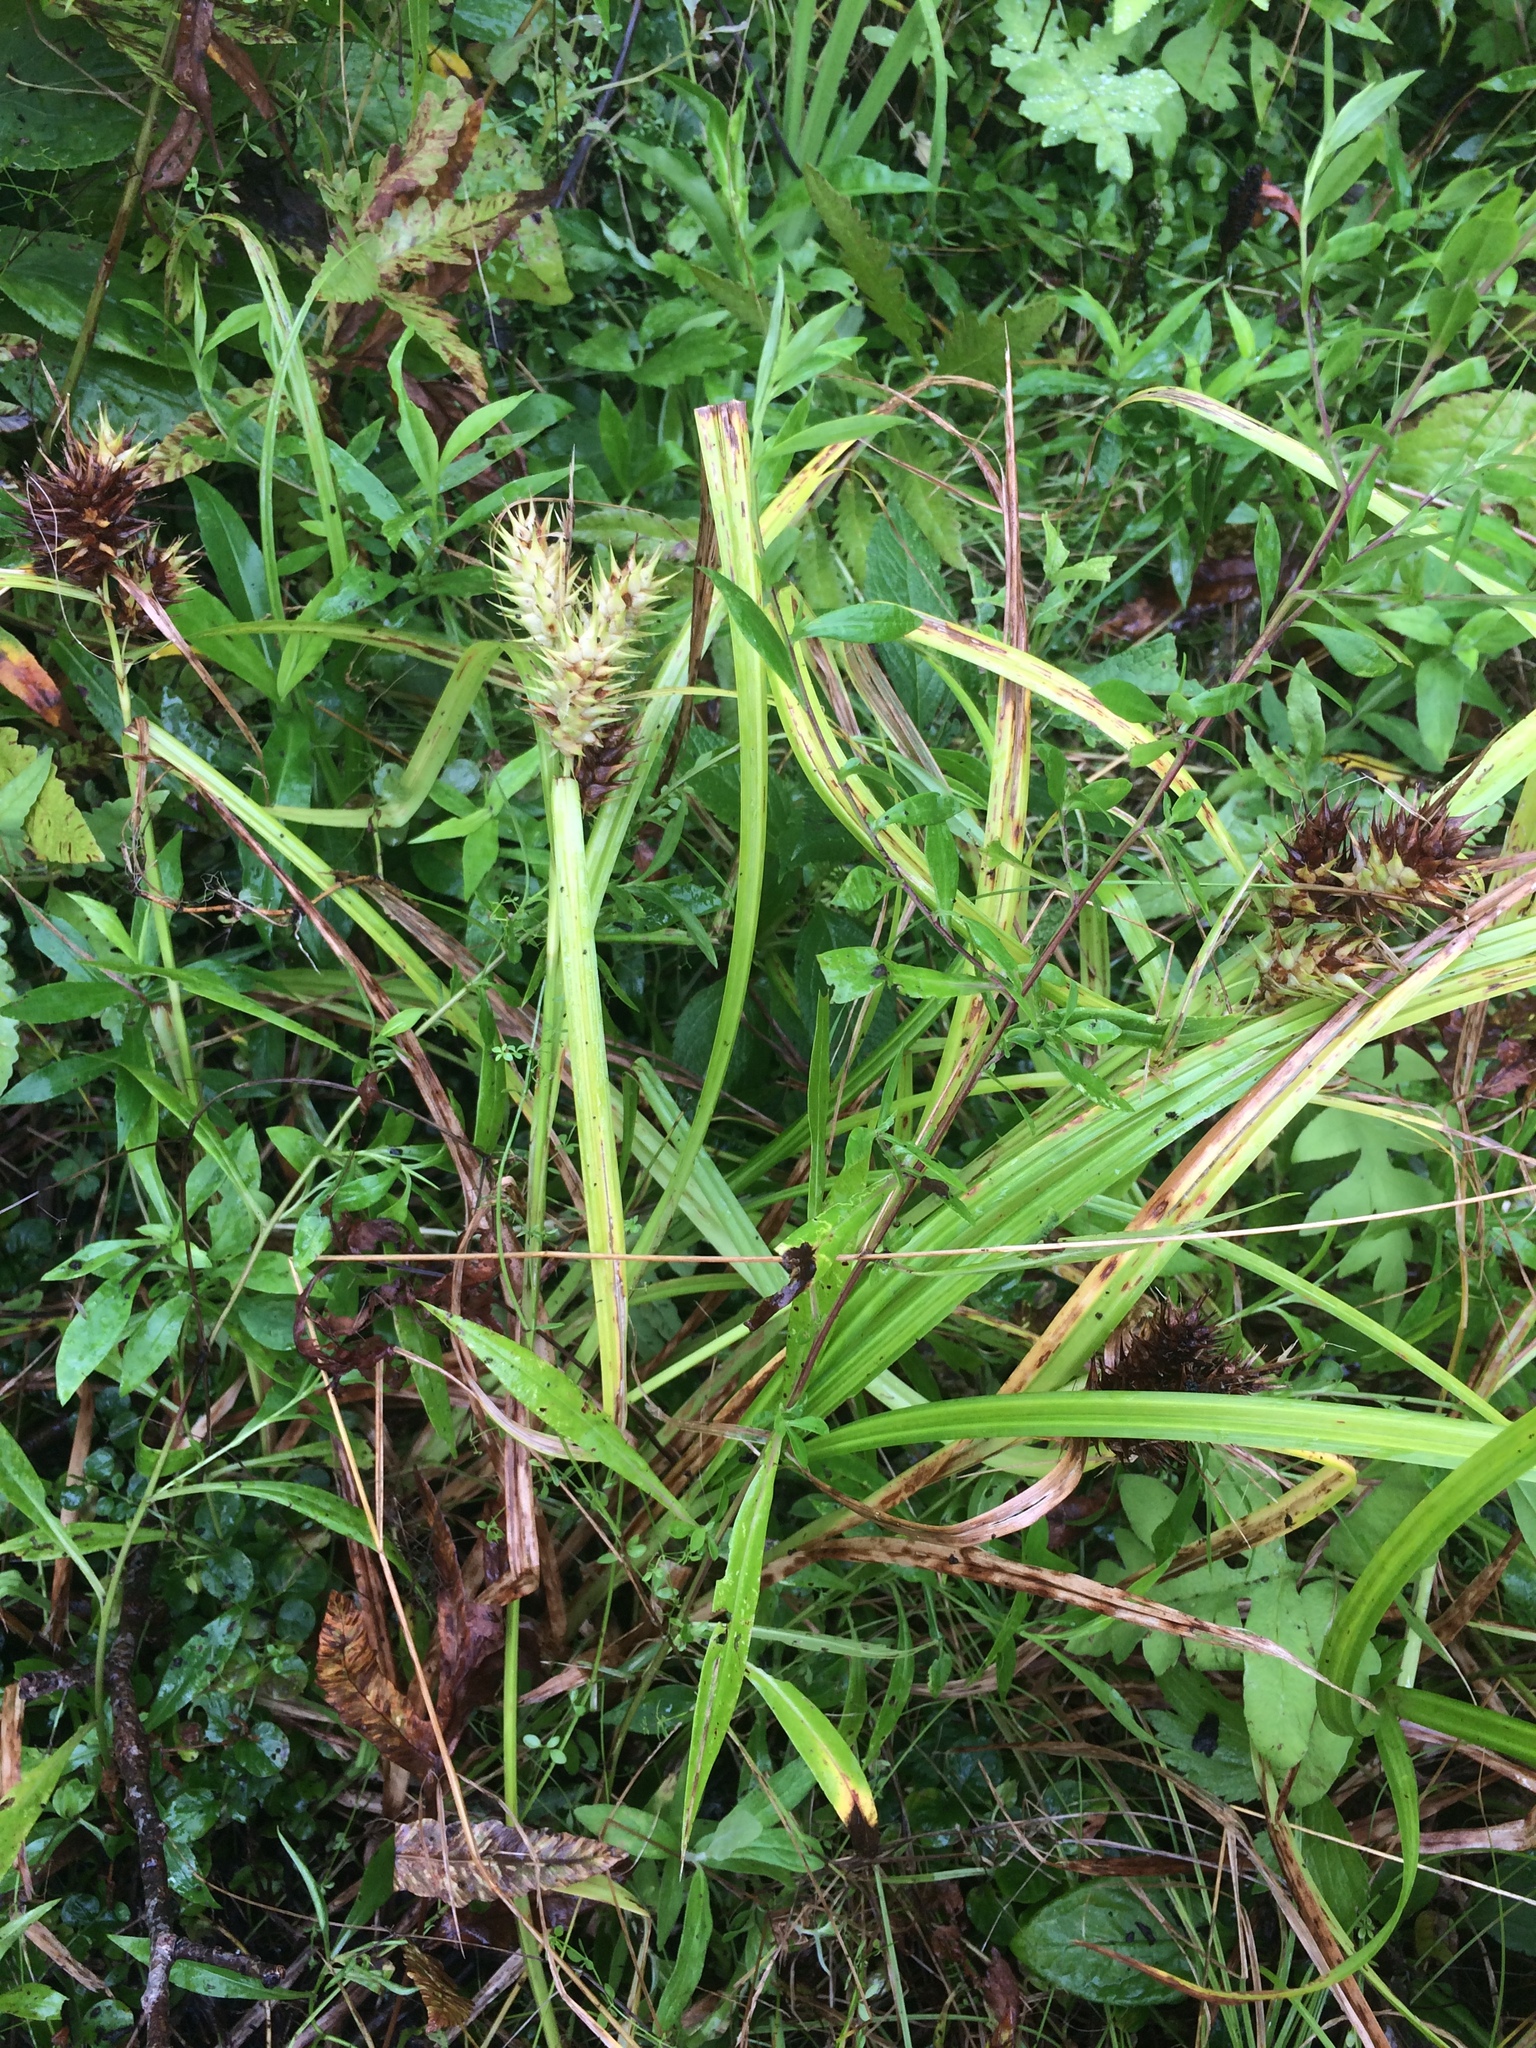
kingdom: Plantae
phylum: Tracheophyta
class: Liliopsida
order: Poales
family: Cyperaceae
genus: Carex
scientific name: Carex lupulina
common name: Hop sedge
